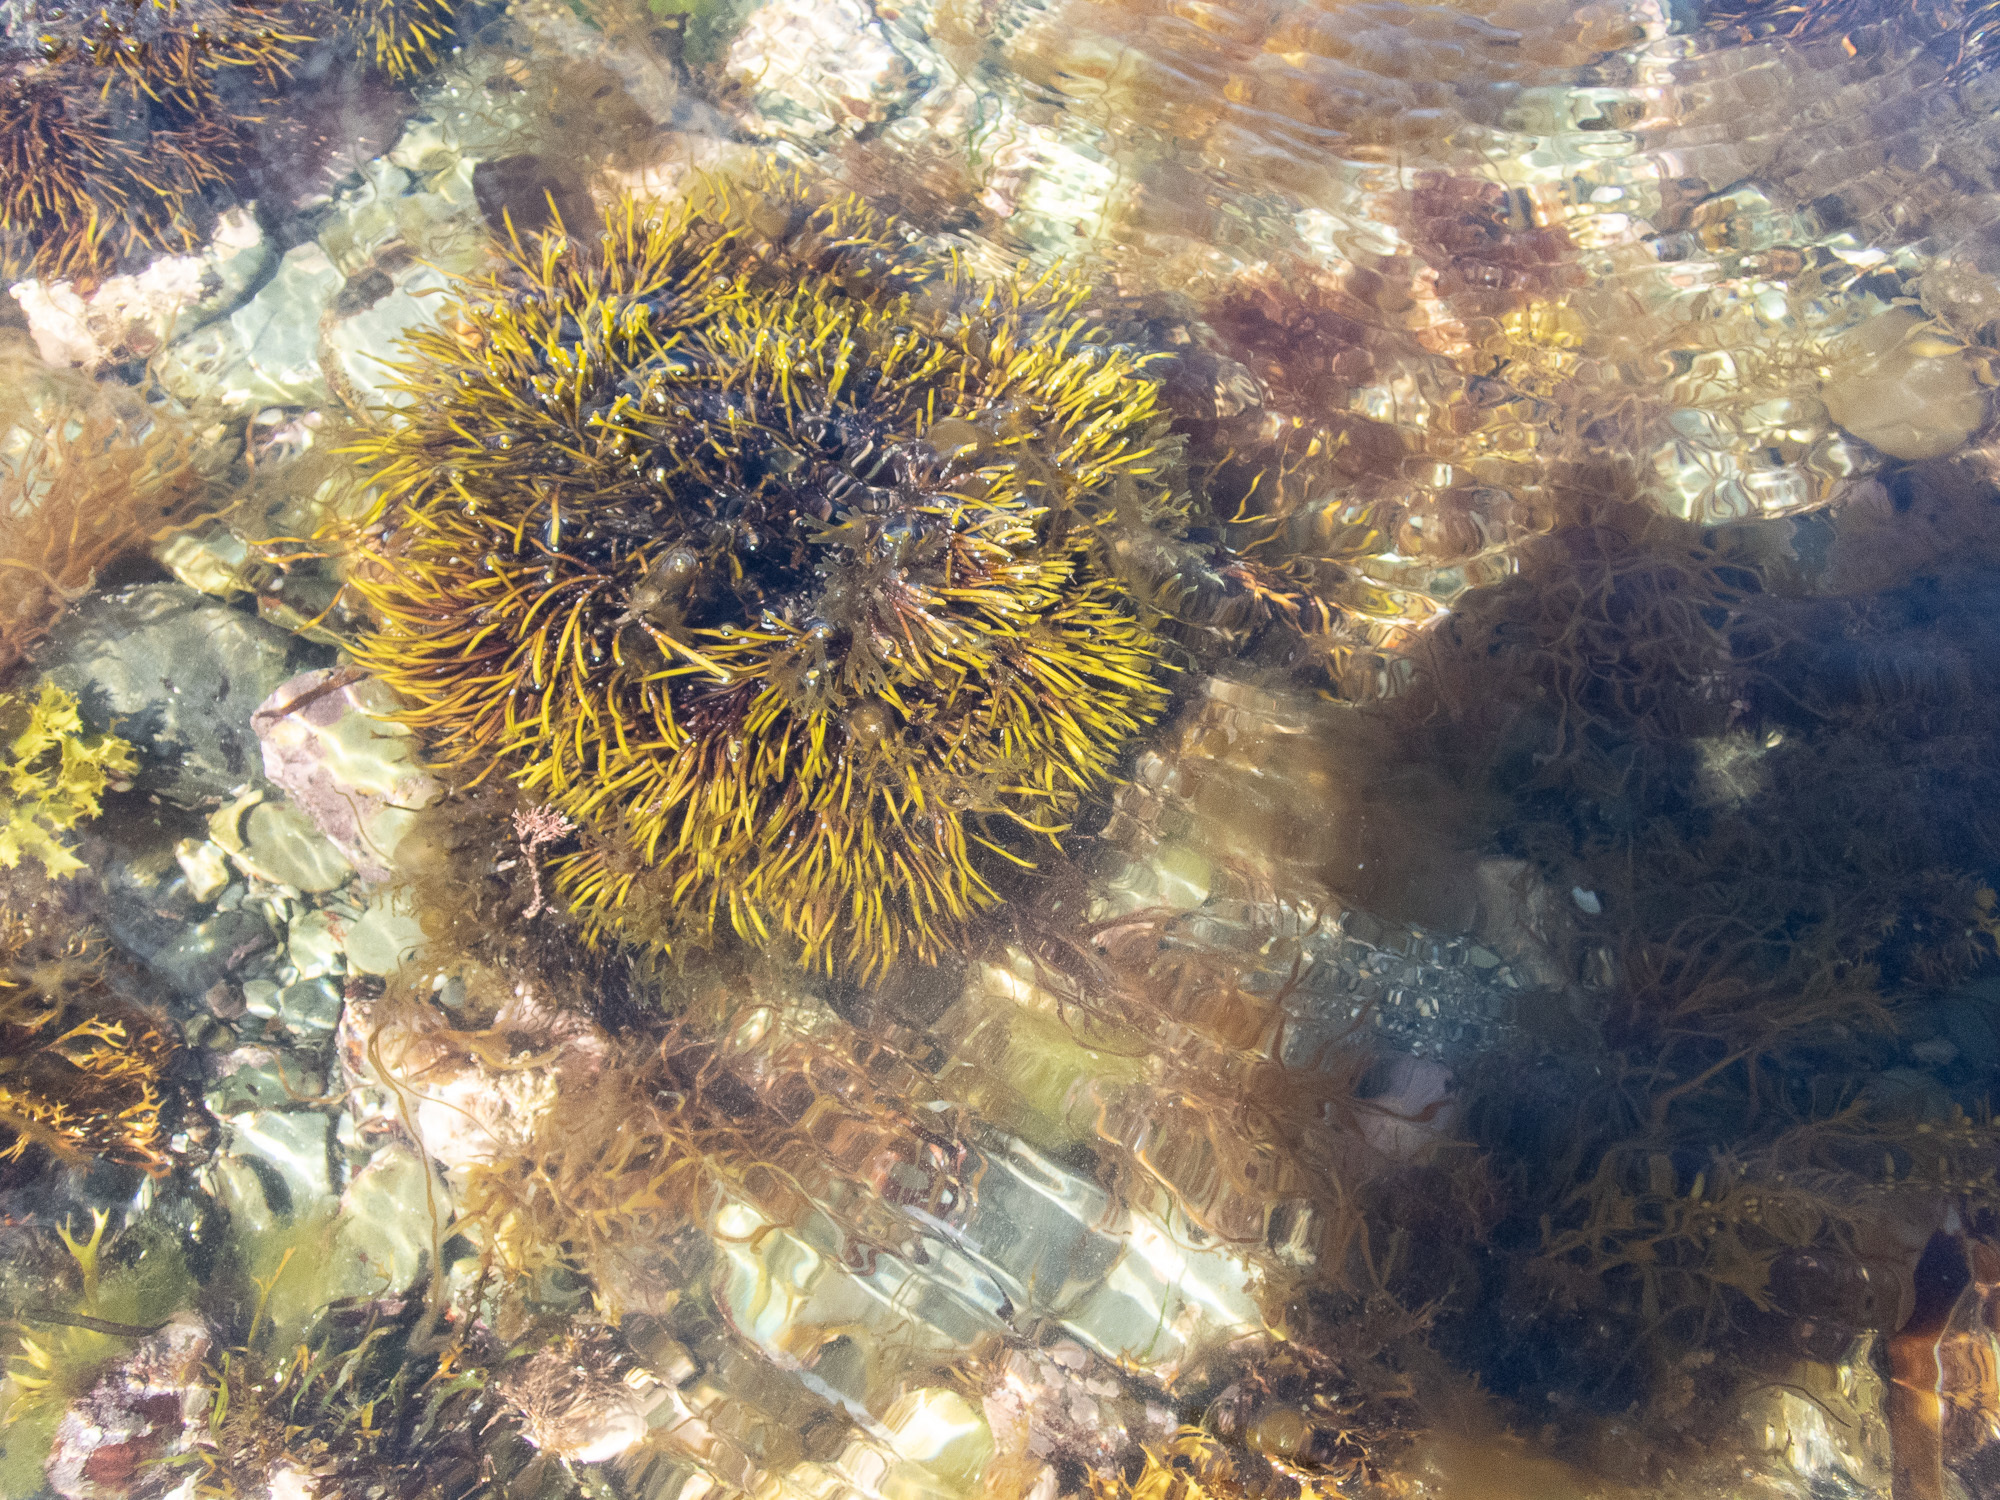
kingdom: Plantae
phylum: Rhodophyta
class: Florideophyceae
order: Gigartinales
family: Furcellariaceae
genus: Furcellaria
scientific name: Furcellaria lumbricalis
